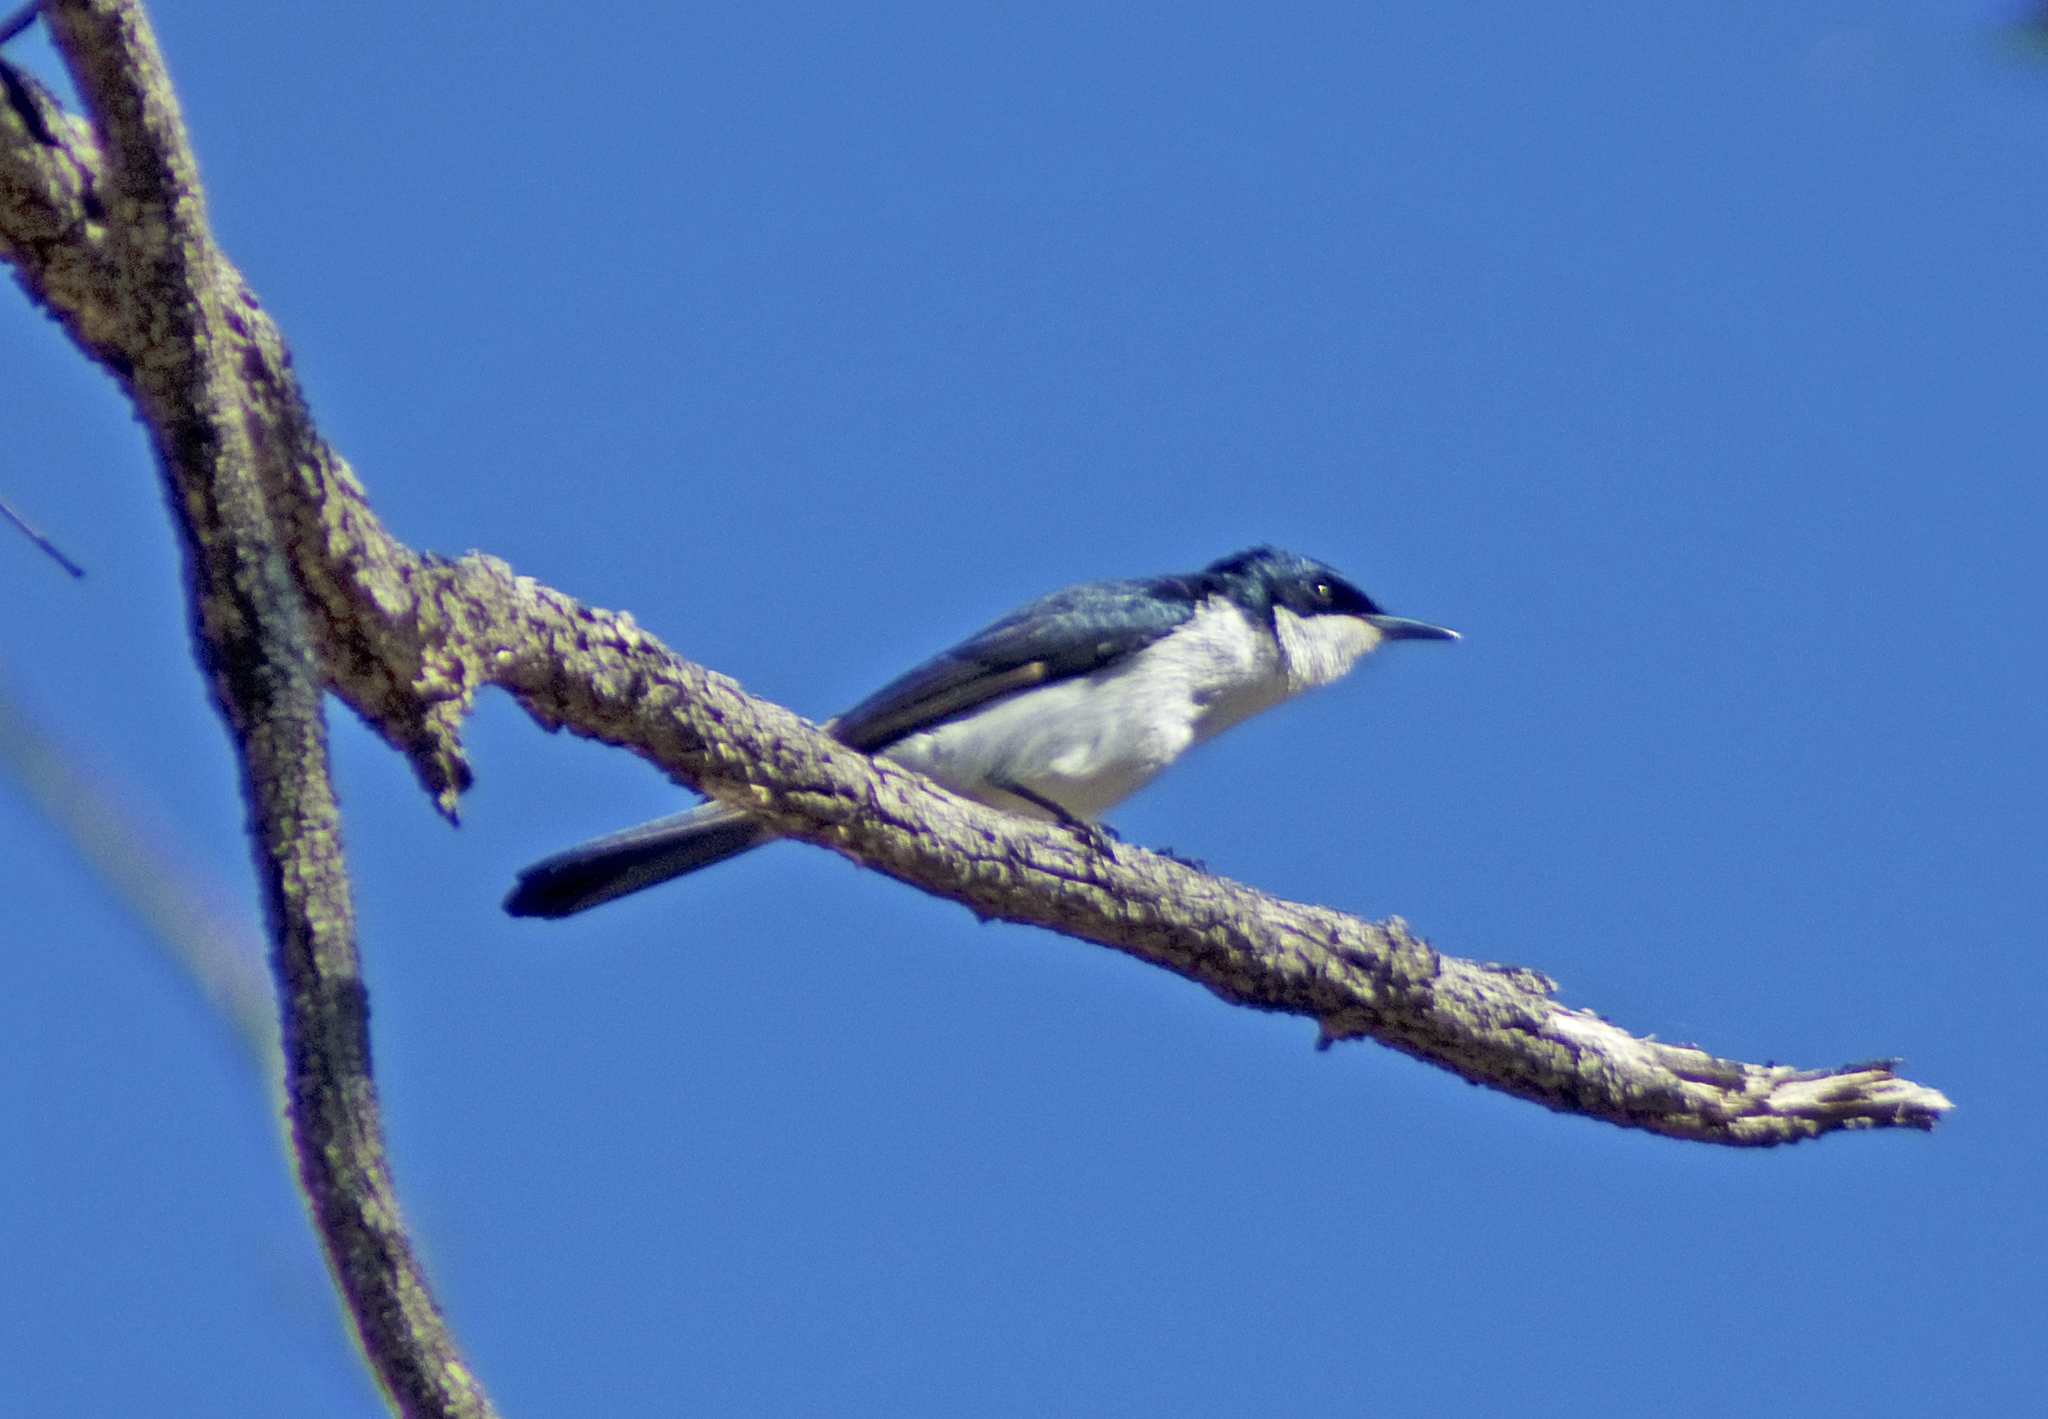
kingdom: Animalia
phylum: Chordata
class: Aves
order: Passeriformes
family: Monarchidae
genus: Myiagra
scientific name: Myiagra inquieta
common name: Restless flycatcher
